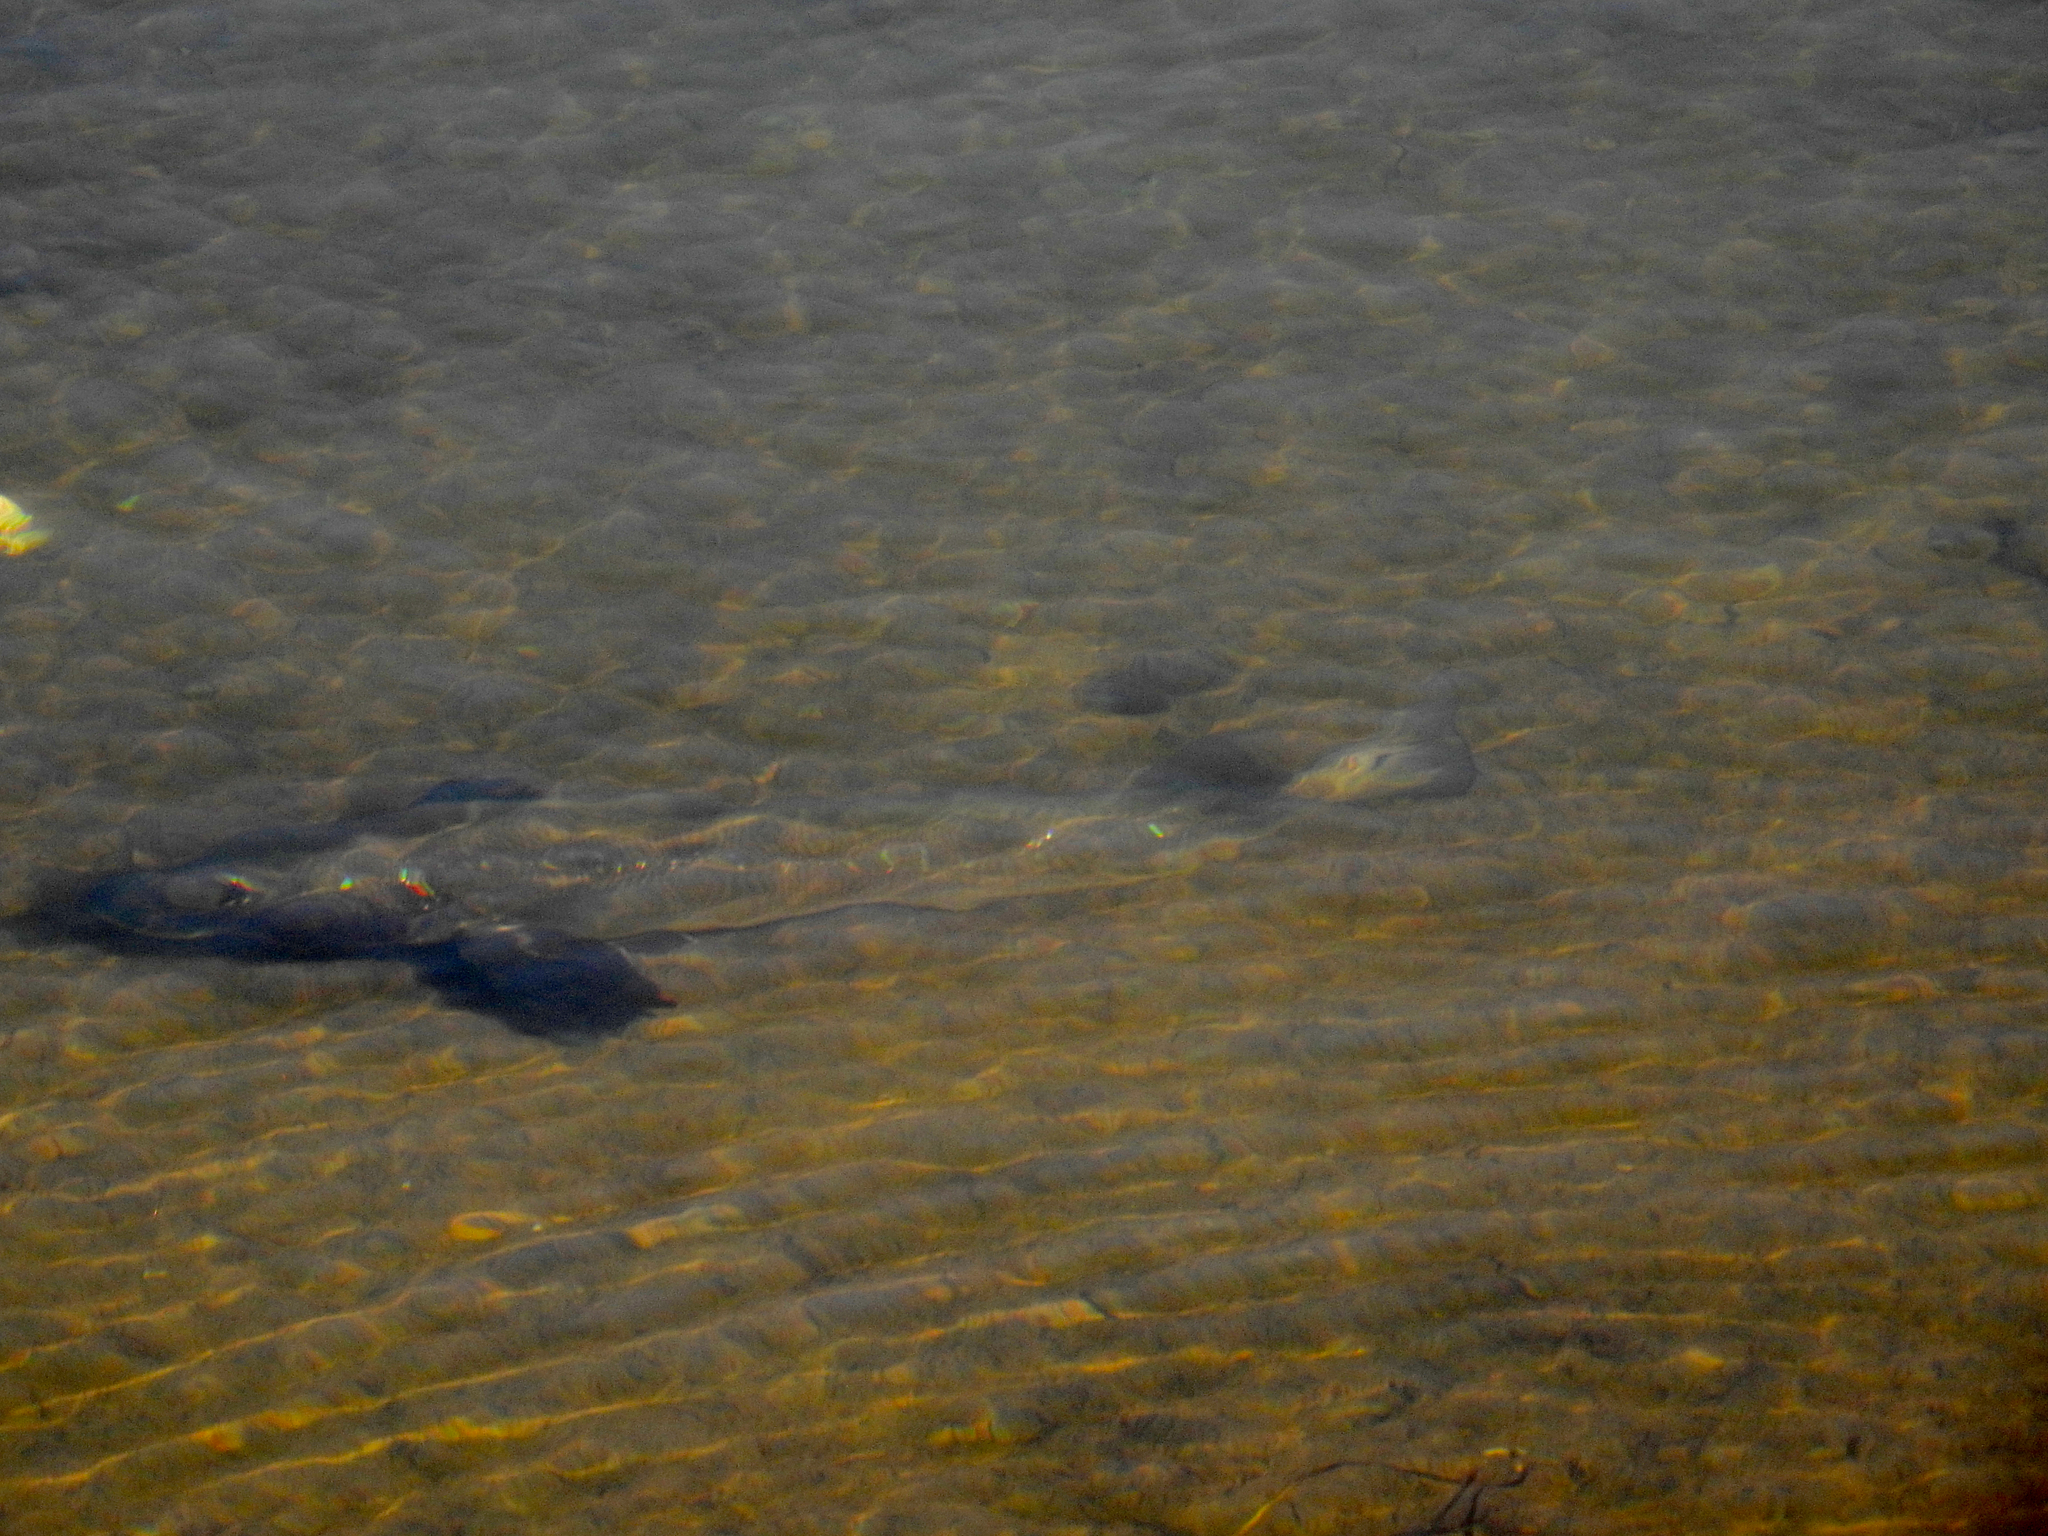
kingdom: Animalia
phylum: Chordata
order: Perciformes
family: Sciaenidae
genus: Menticirrhus
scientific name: Menticirrhus undulatus
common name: California corbina
